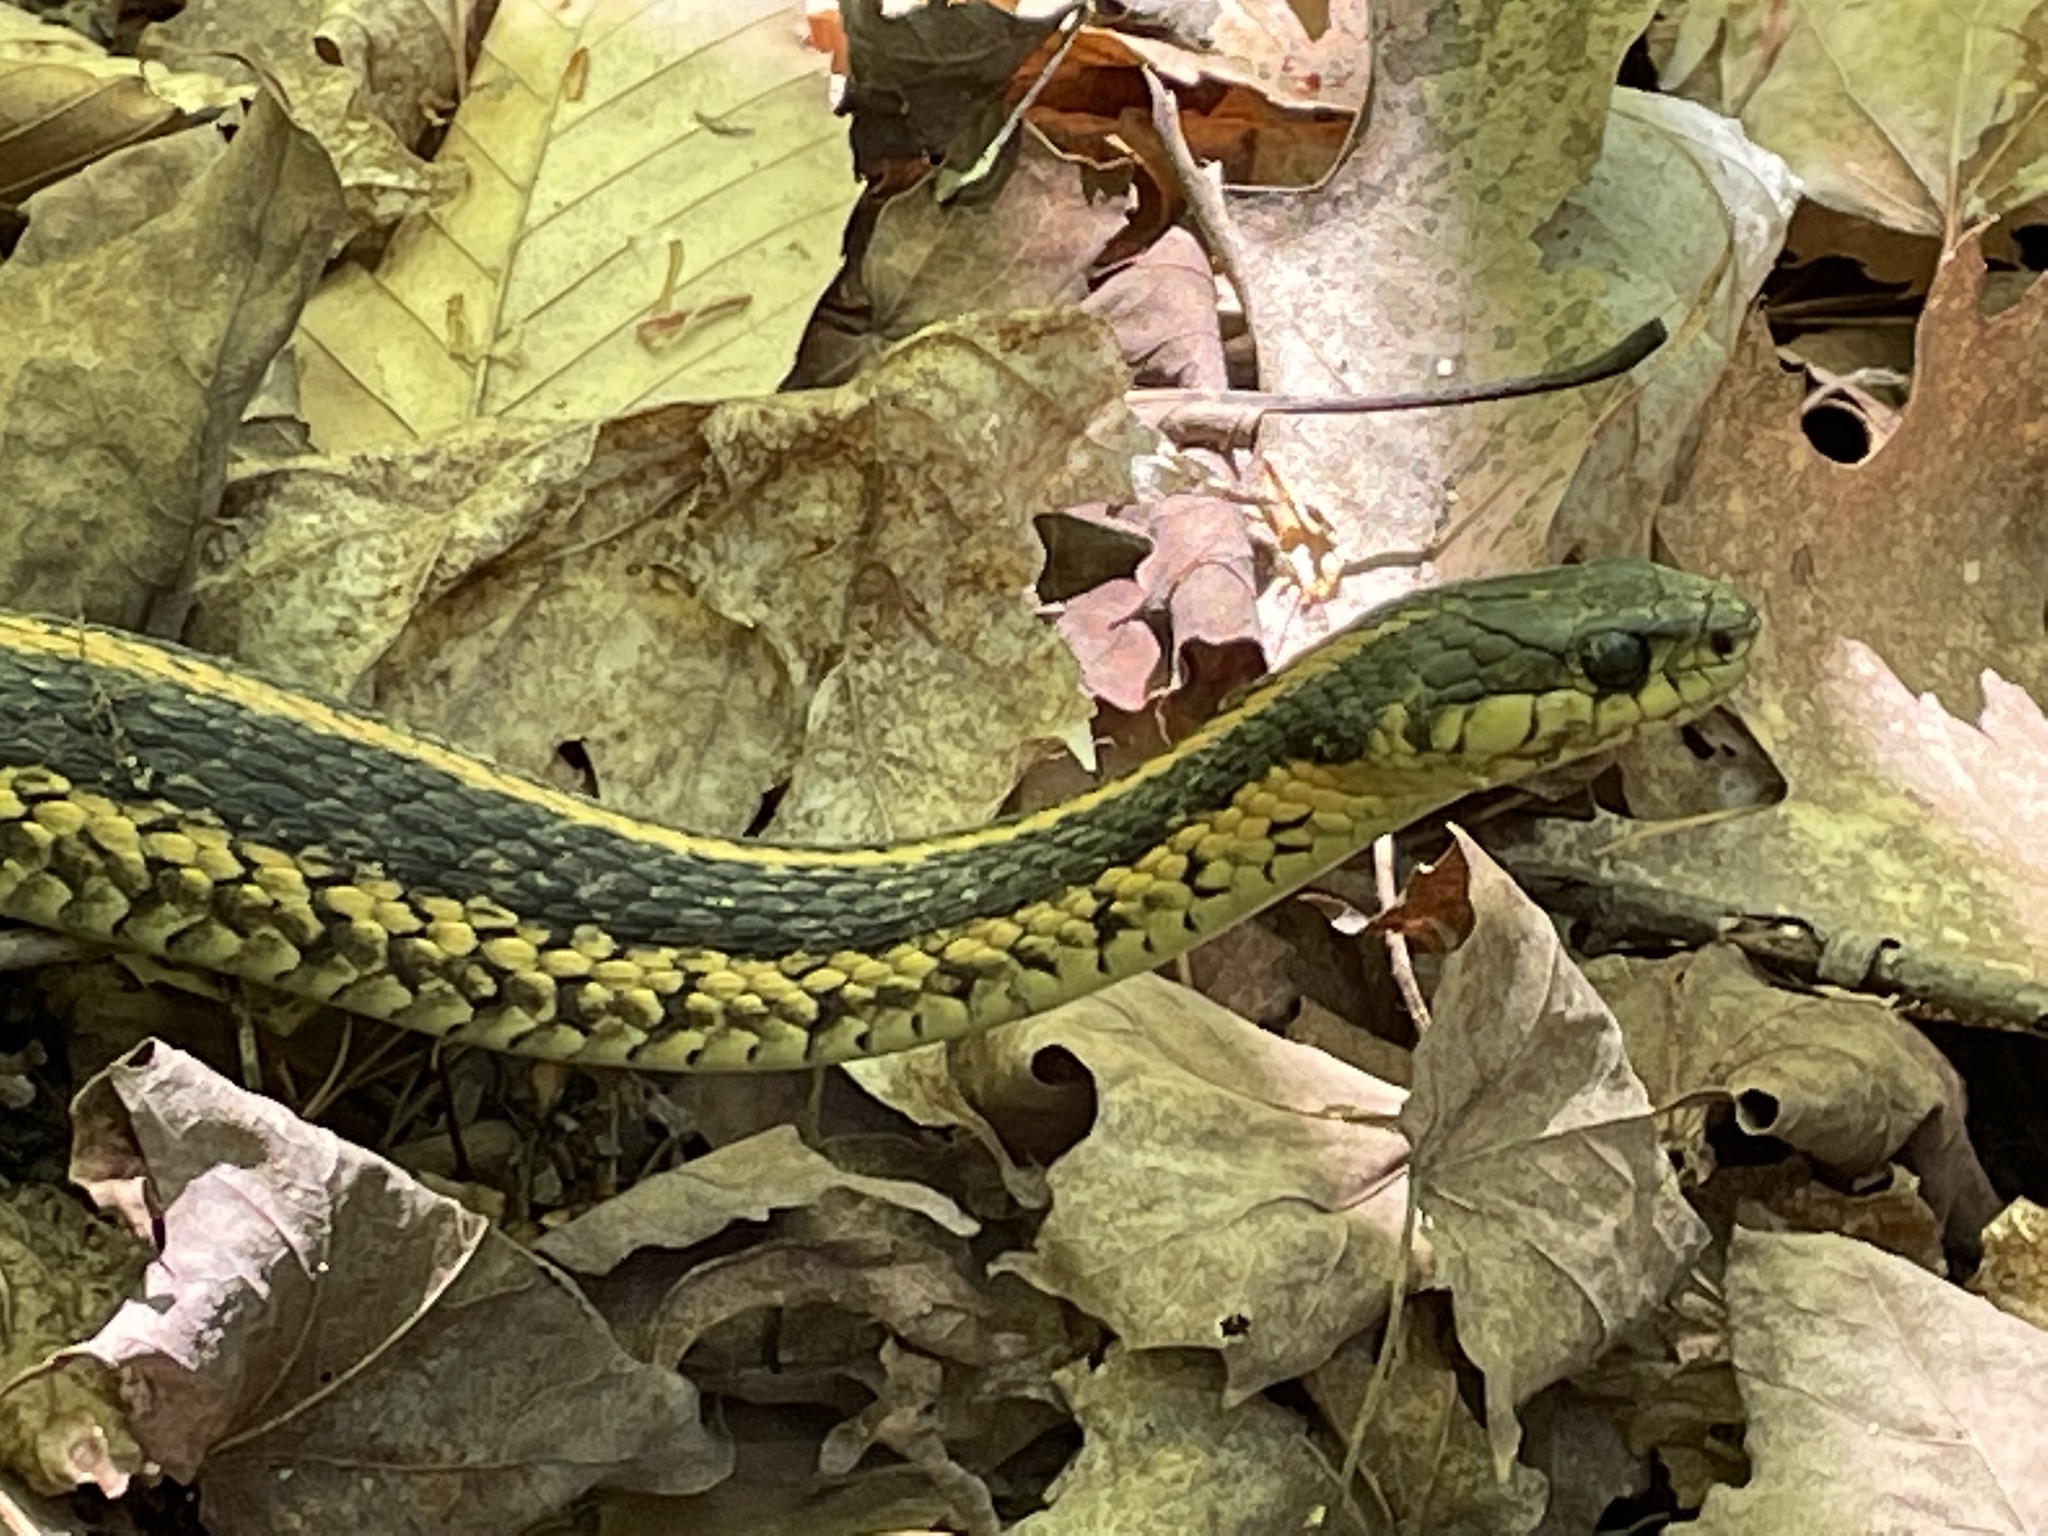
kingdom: Animalia
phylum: Chordata
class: Squamata
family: Colubridae
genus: Thamnophis
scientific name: Thamnophis sirtalis
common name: Common garter snake
